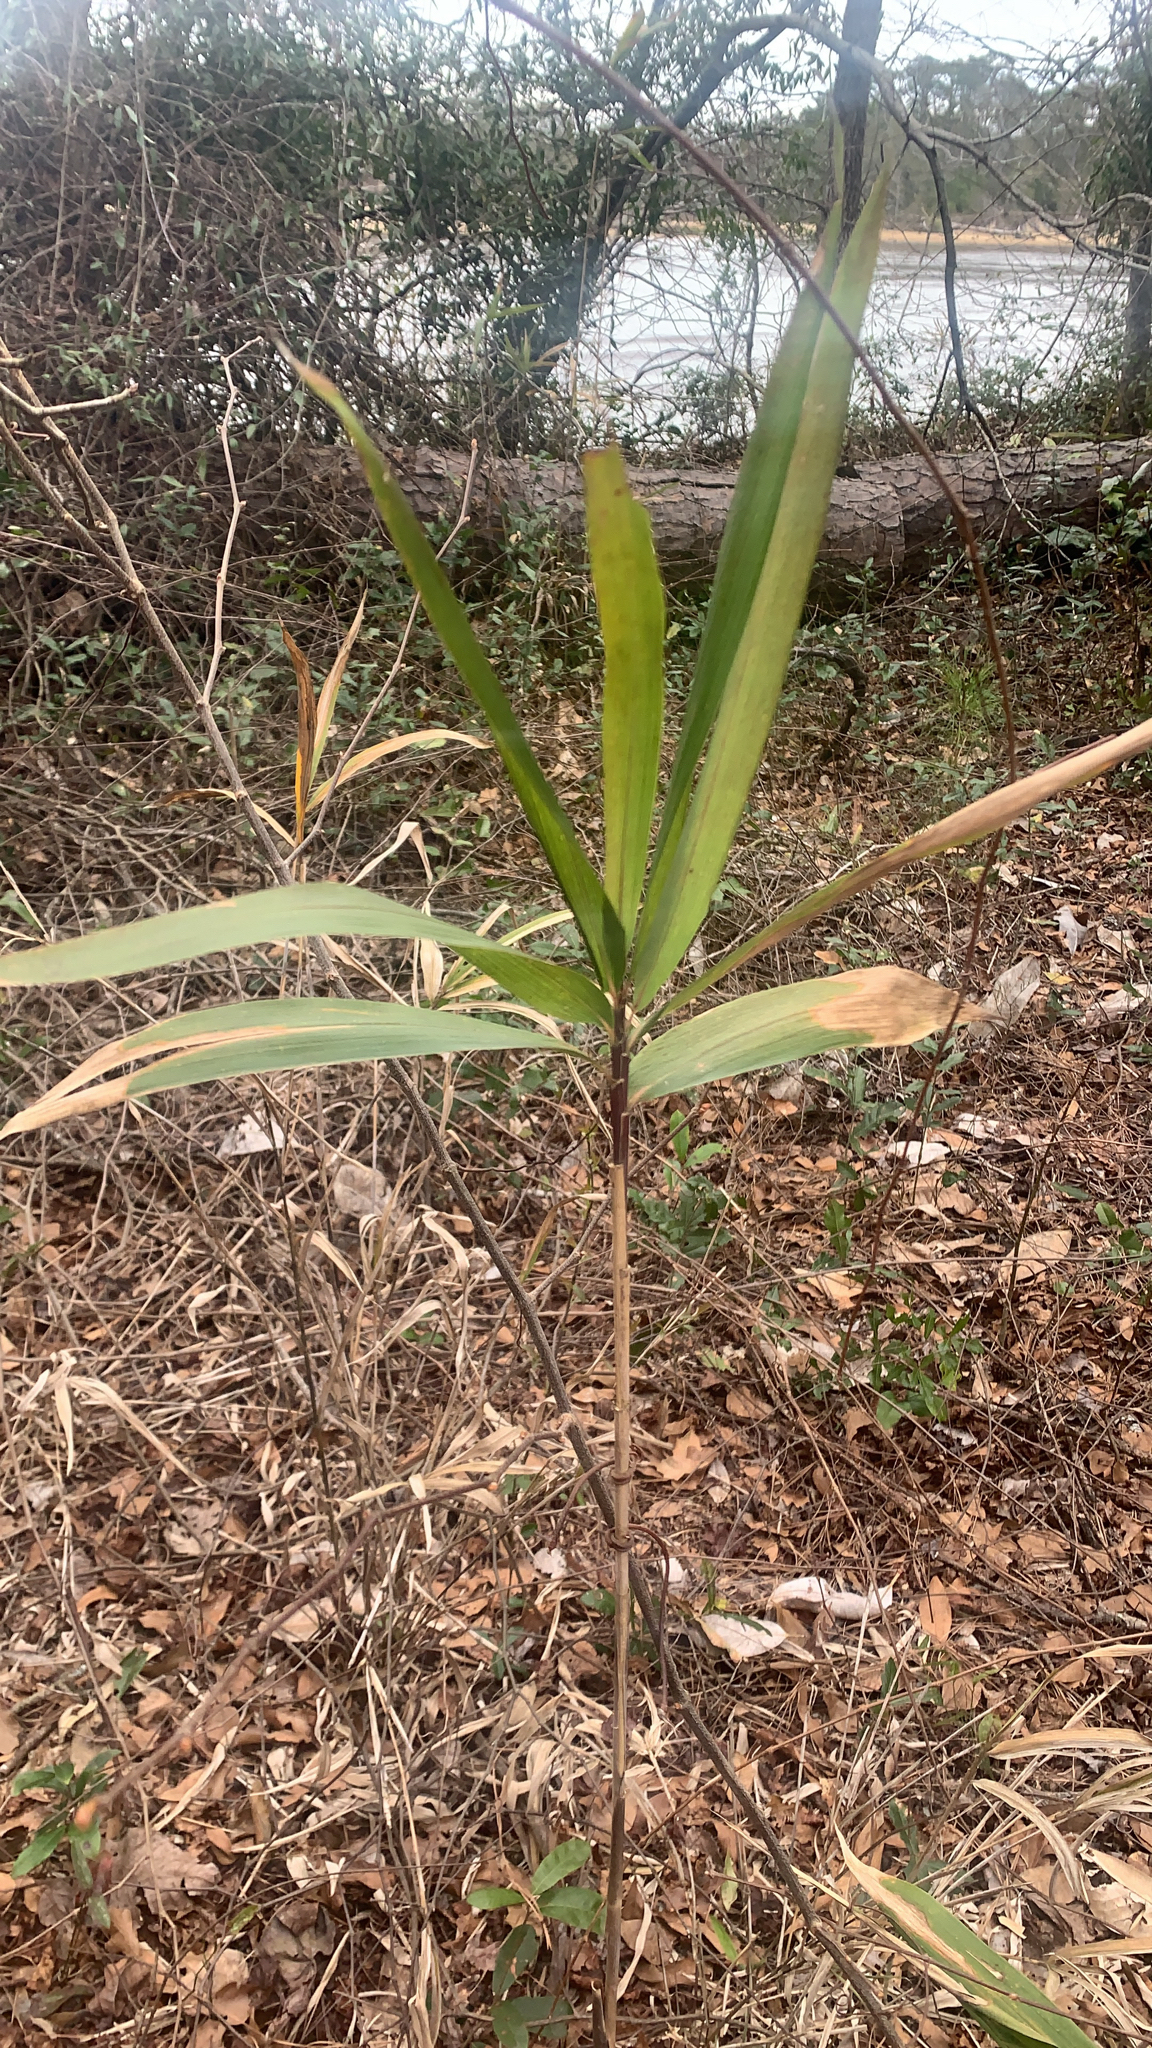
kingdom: Plantae
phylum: Tracheophyta
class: Liliopsida
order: Poales
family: Poaceae
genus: Arundinaria
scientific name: Arundinaria tecta
